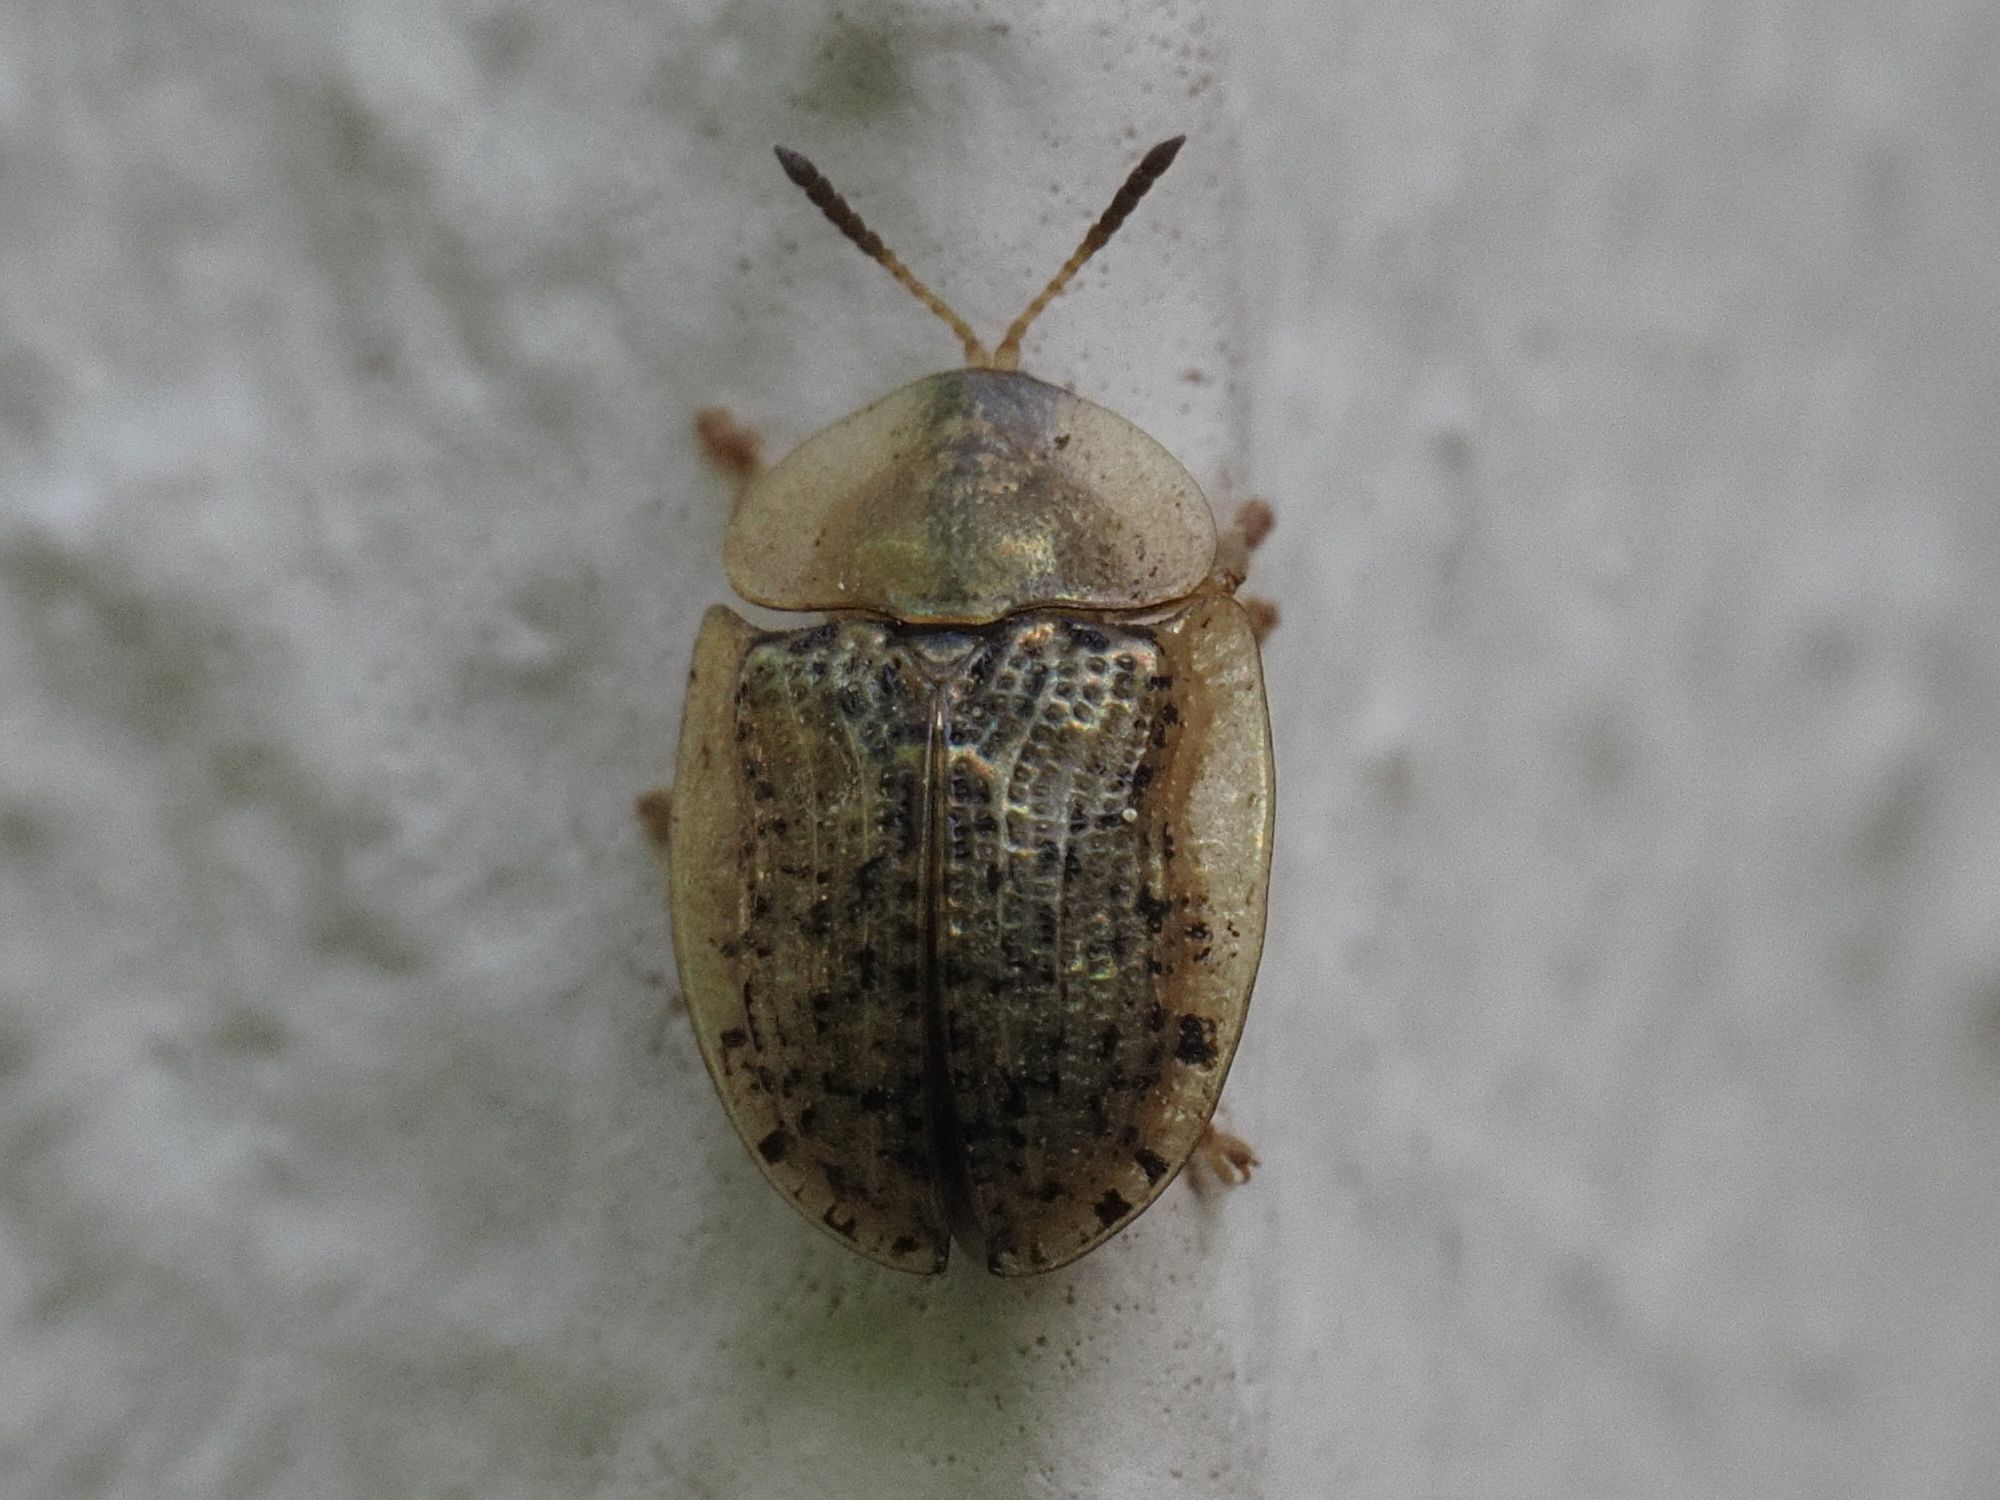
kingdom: Animalia
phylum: Arthropoda
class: Insecta
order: Coleoptera
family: Chrysomelidae
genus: Cassida
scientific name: Cassida nebulosa
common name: Beet tortoise beetle
